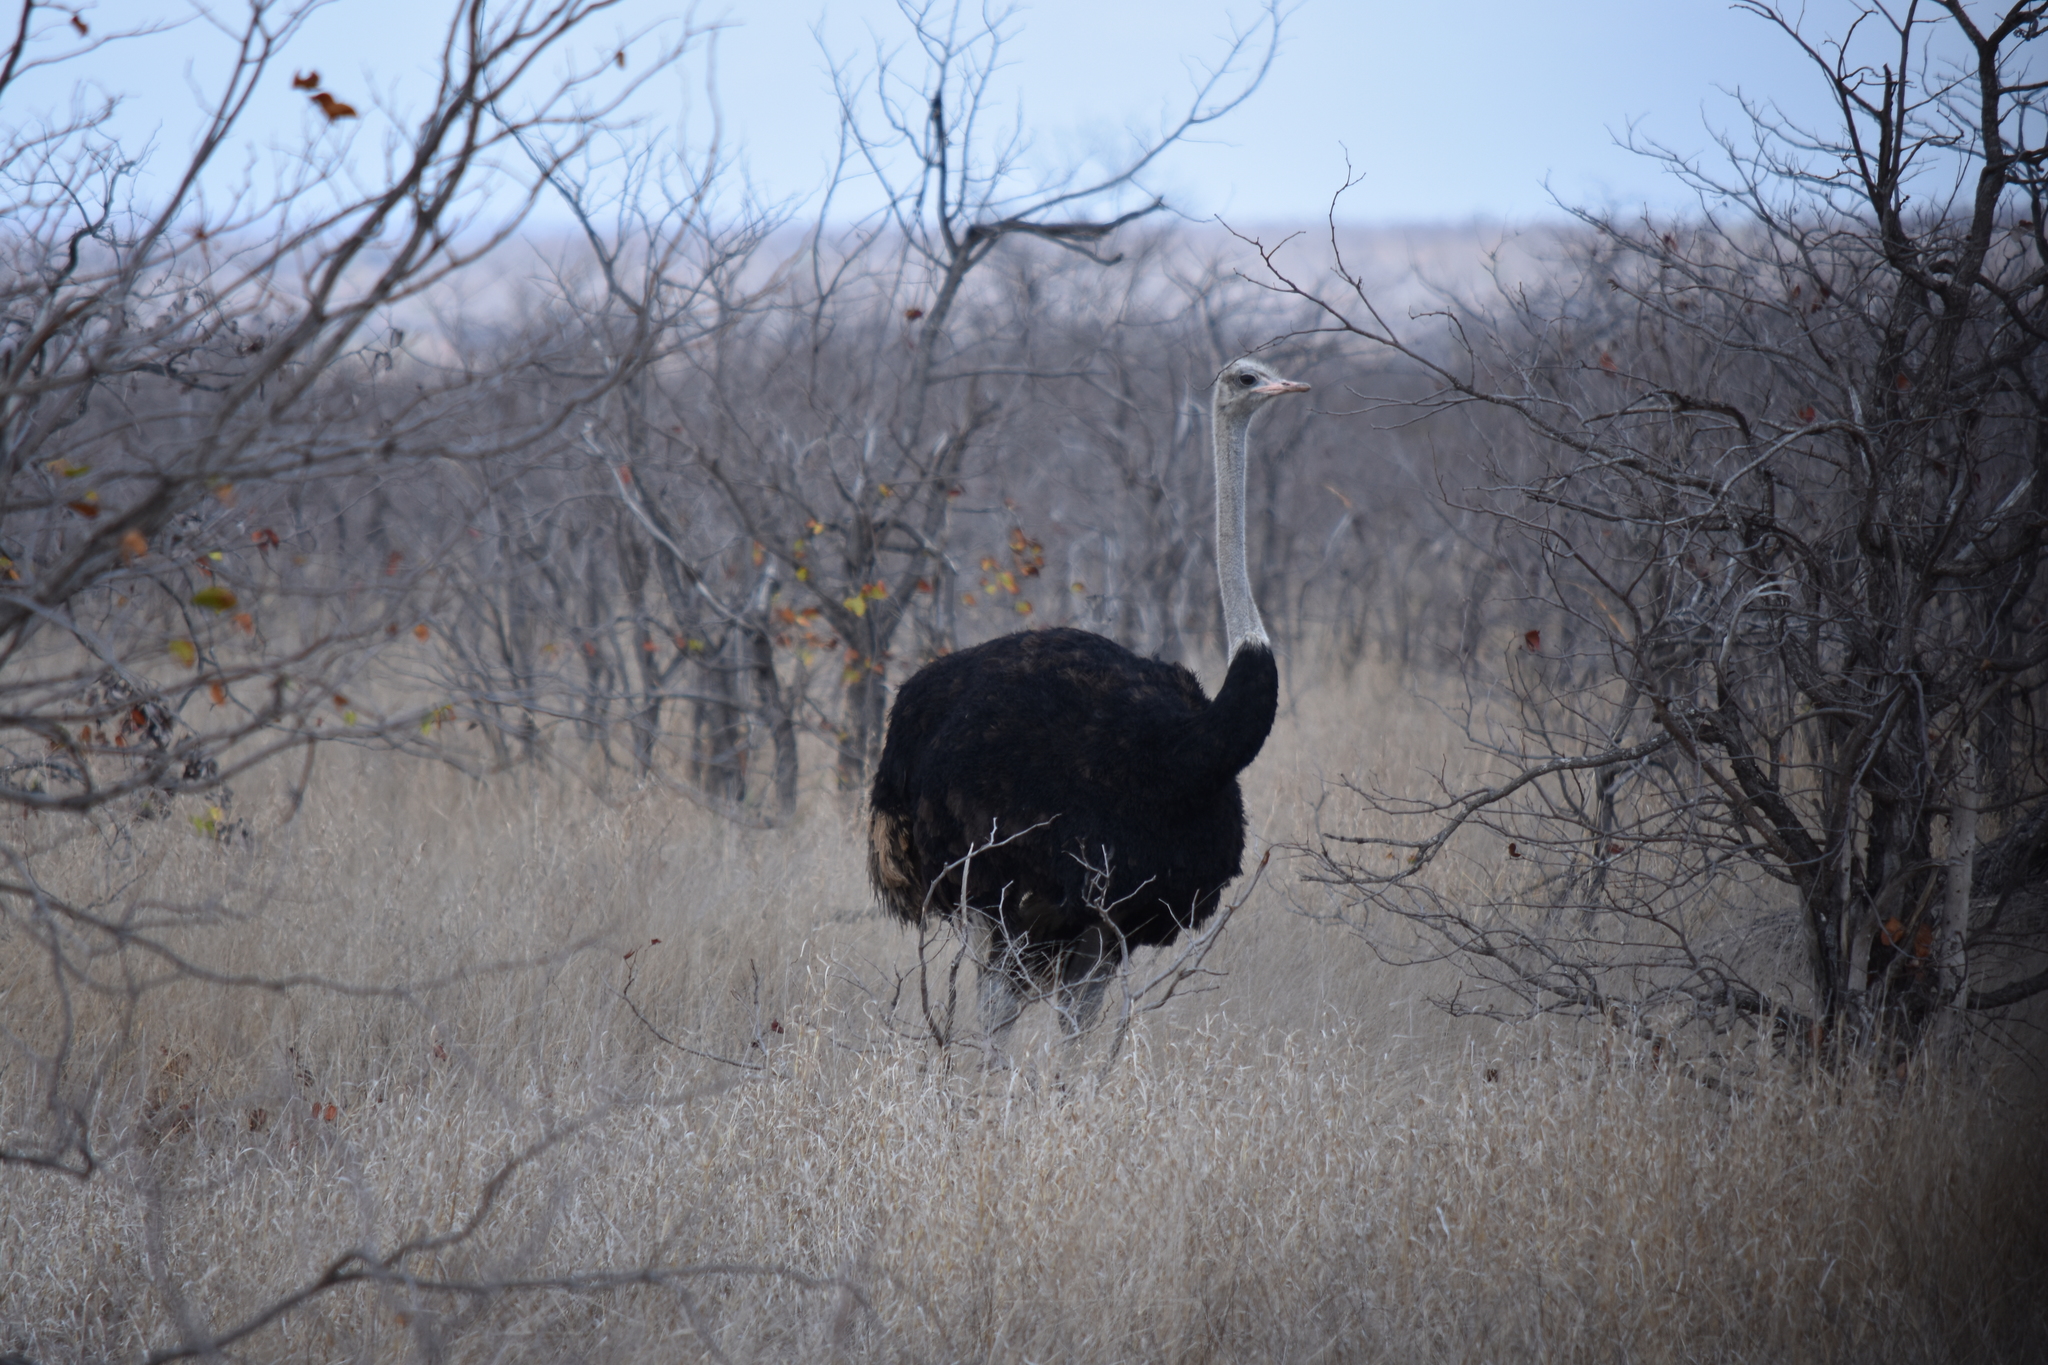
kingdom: Animalia
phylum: Chordata
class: Aves
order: Struthioniformes
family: Struthionidae
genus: Struthio
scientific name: Struthio camelus
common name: Common ostrich
